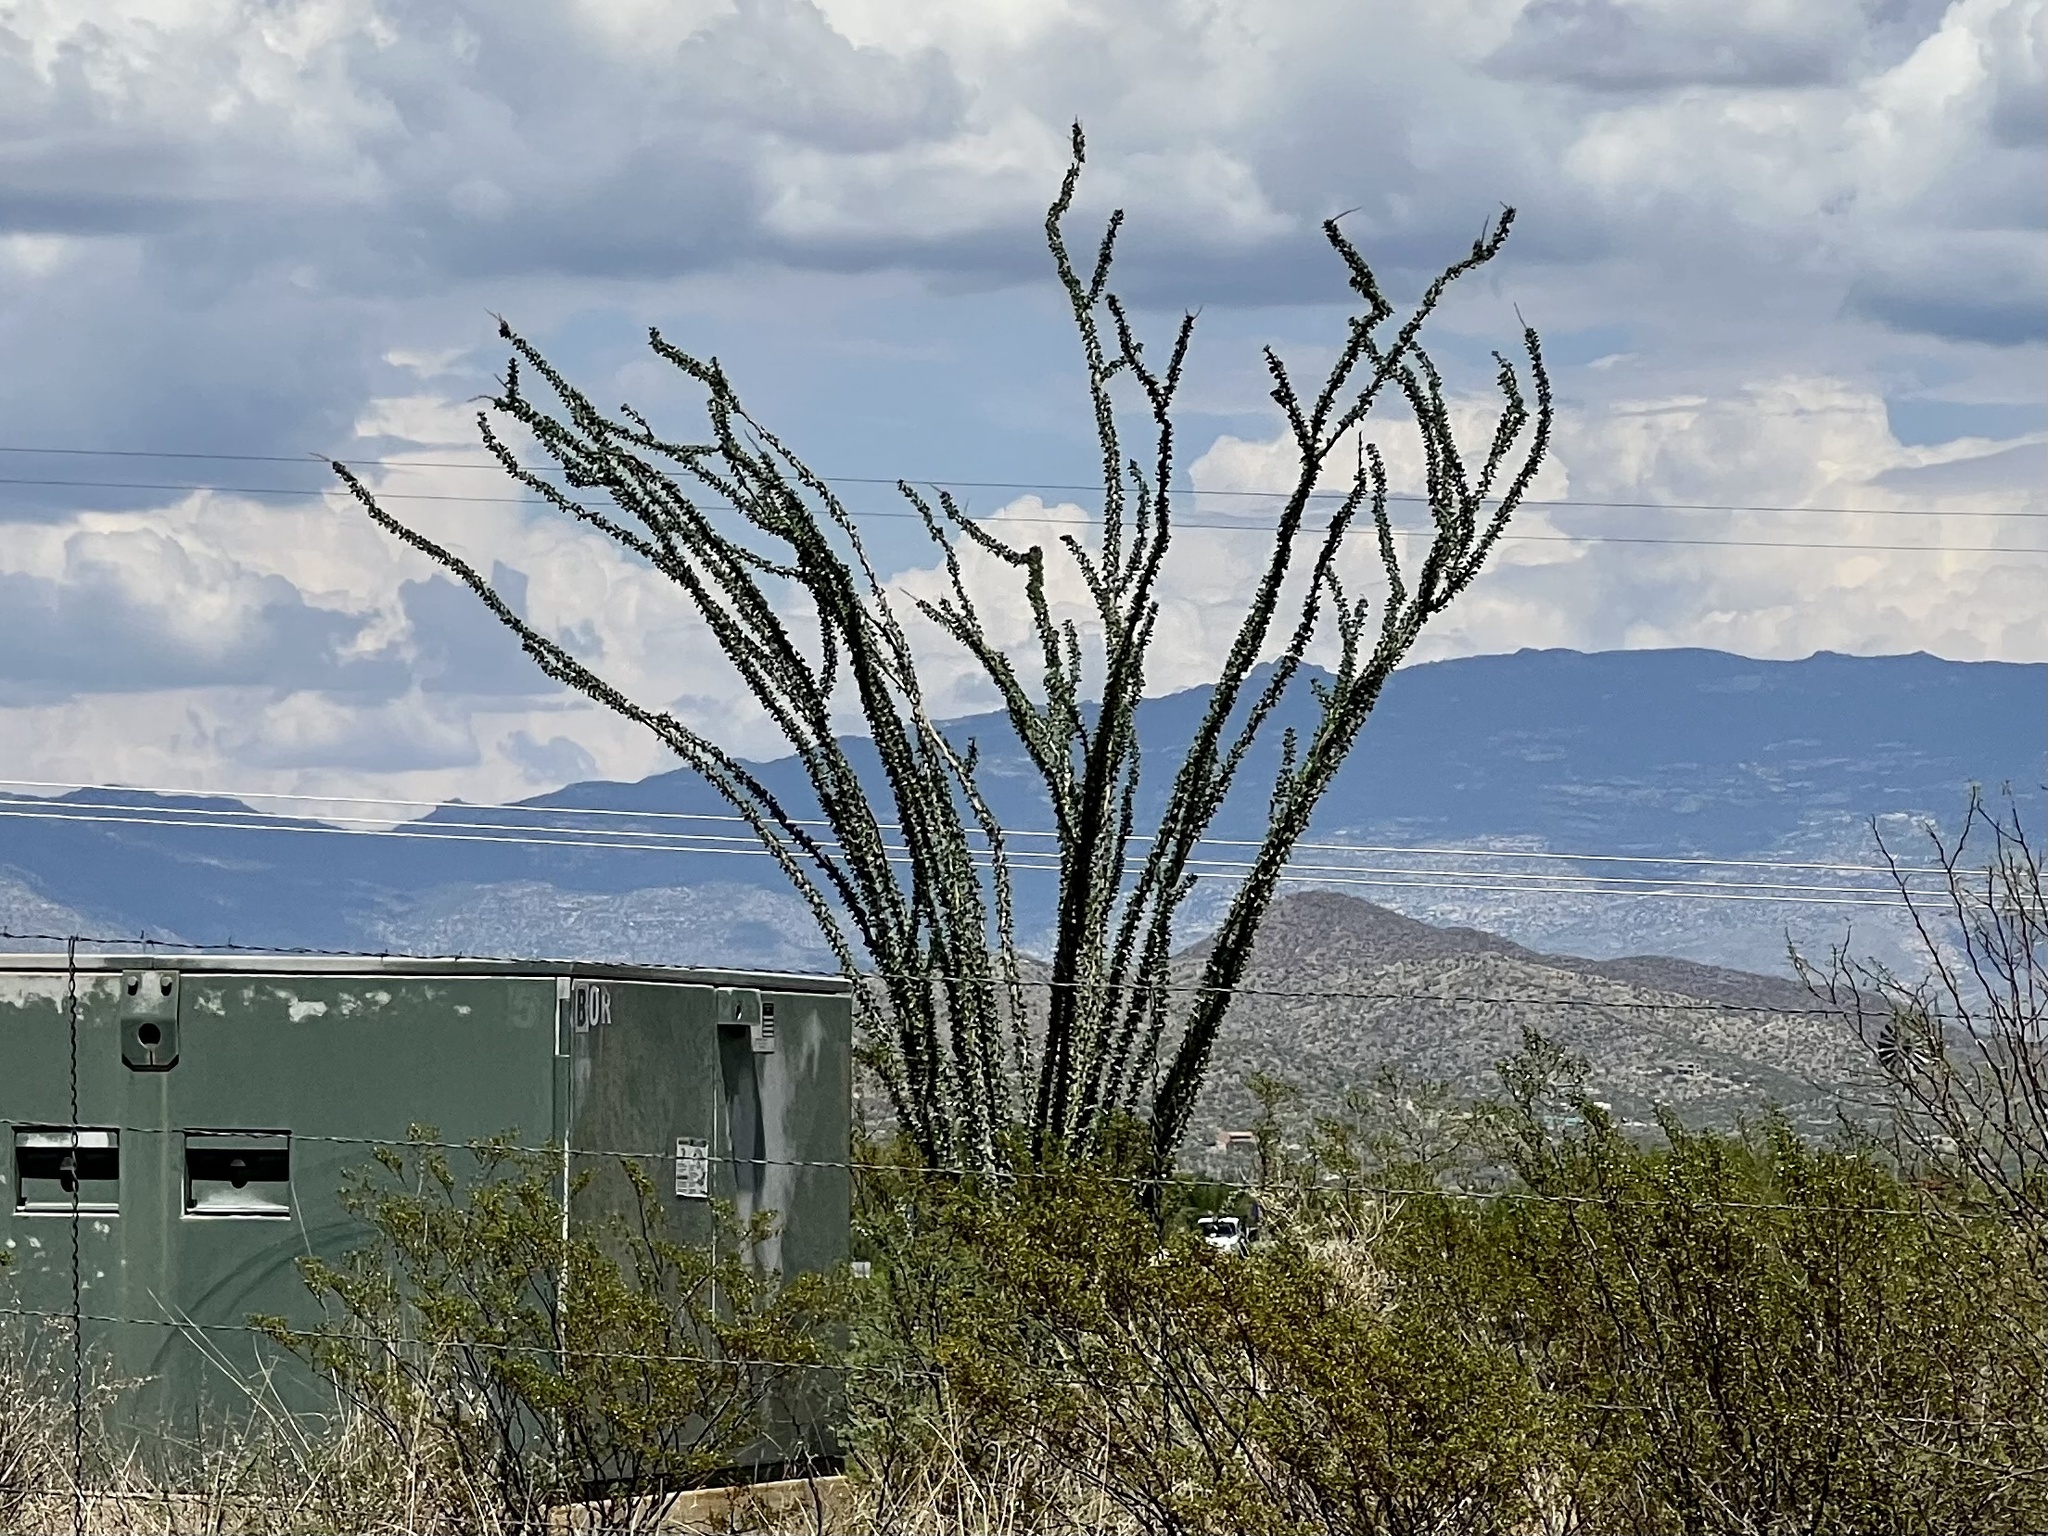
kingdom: Plantae
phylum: Tracheophyta
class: Magnoliopsida
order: Ericales
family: Fouquieriaceae
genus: Fouquieria
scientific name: Fouquieria splendens
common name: Vine-cactus
